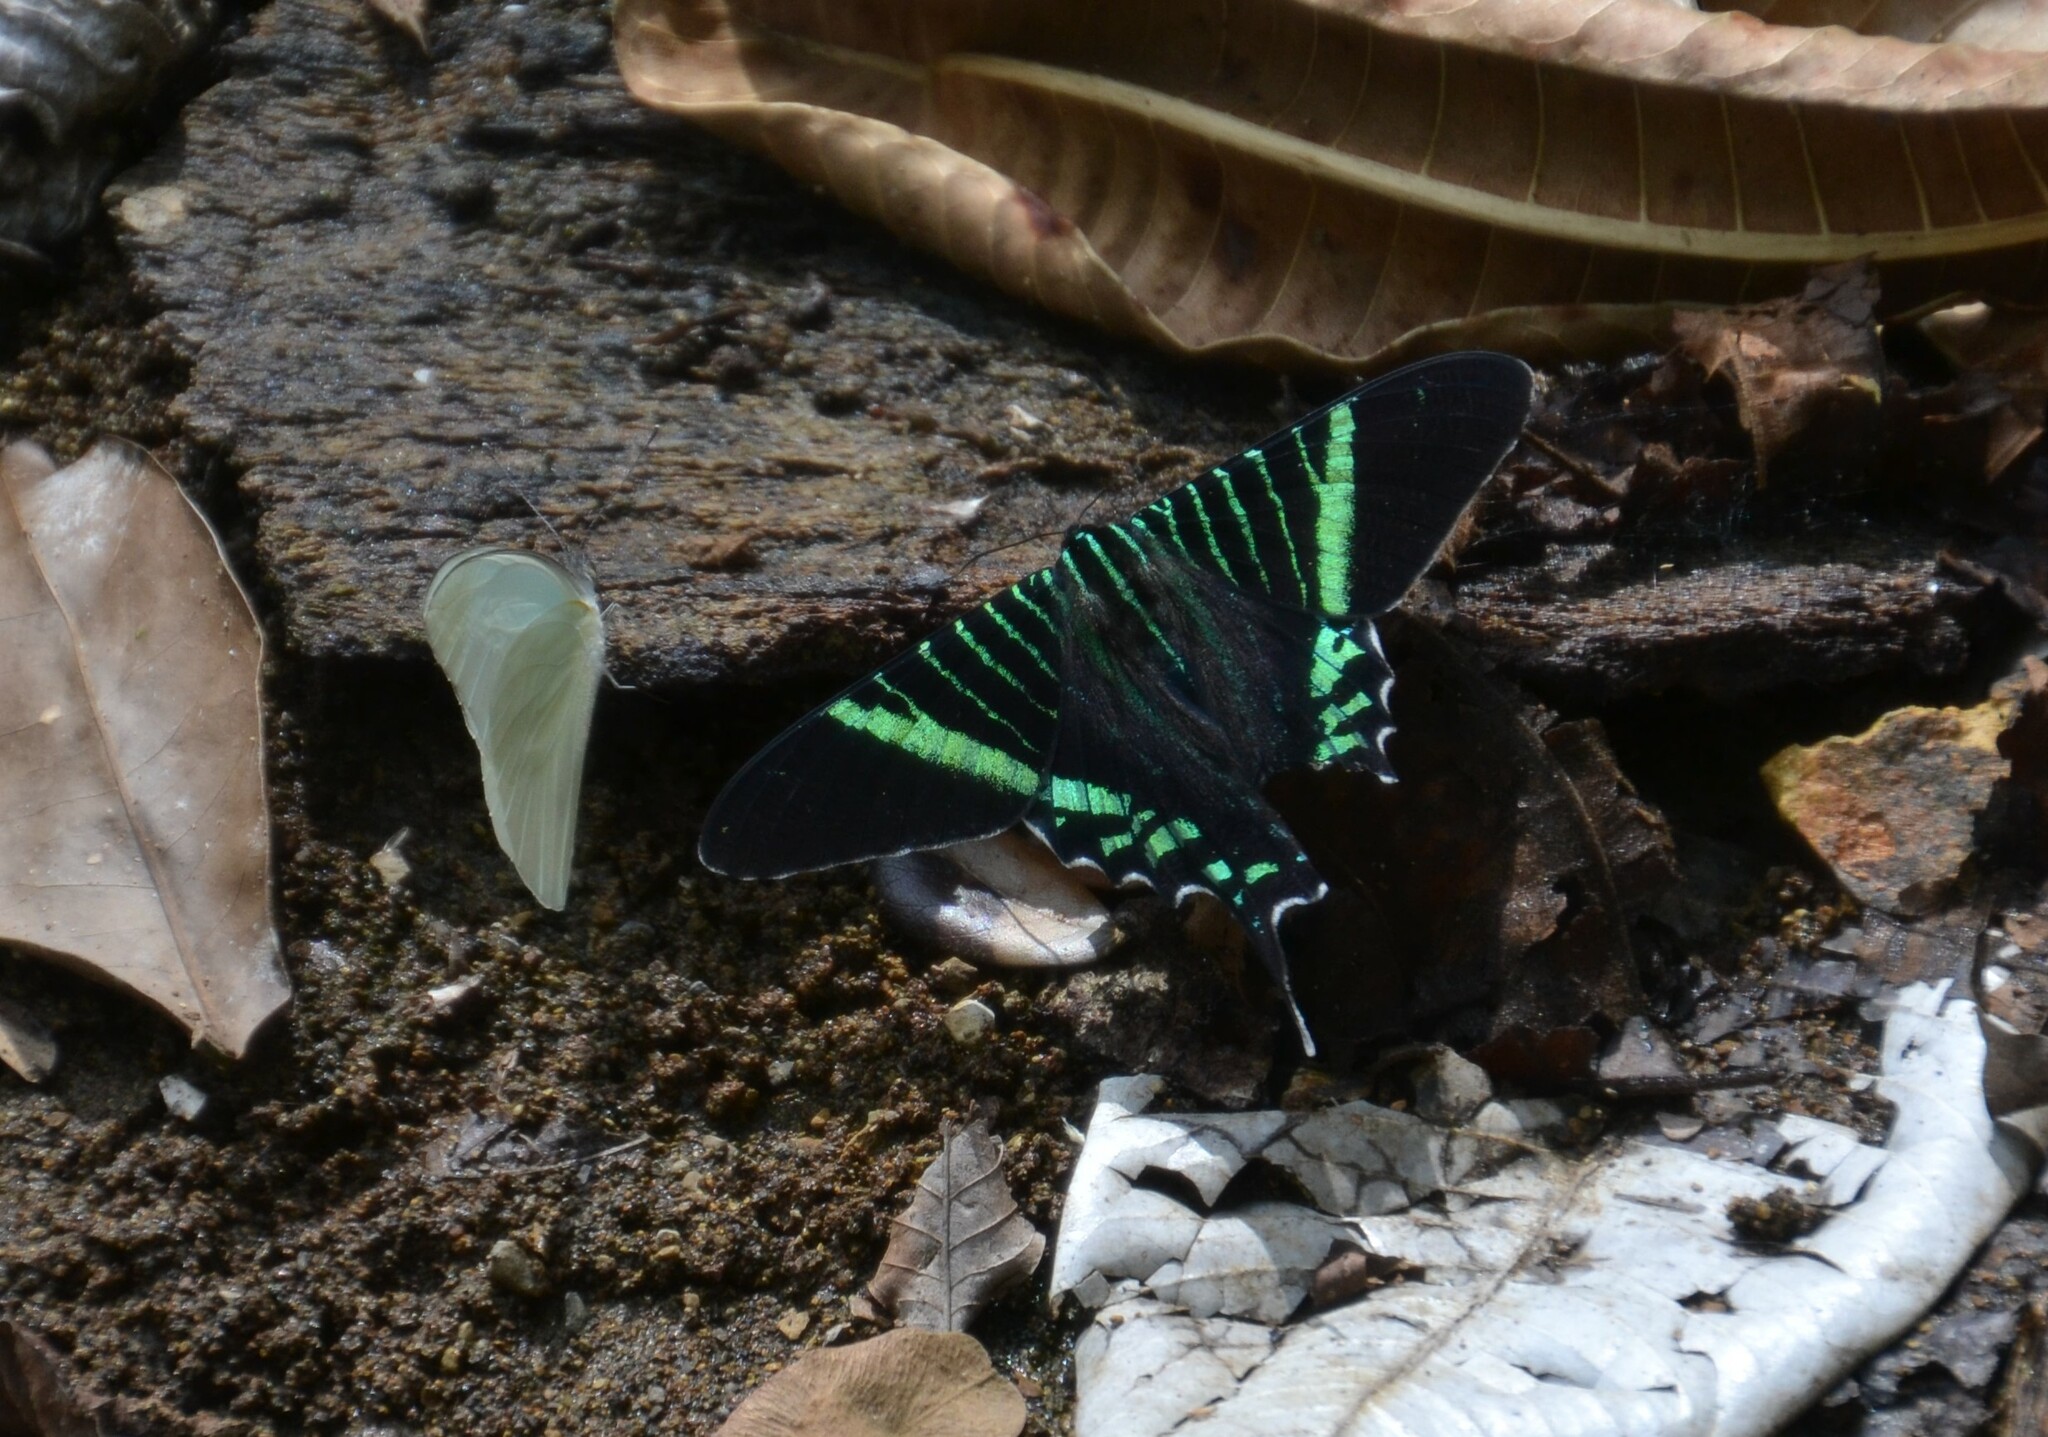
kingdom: Animalia
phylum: Arthropoda
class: Insecta
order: Lepidoptera
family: Uraniidae
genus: Urania
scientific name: Urania fulgens
